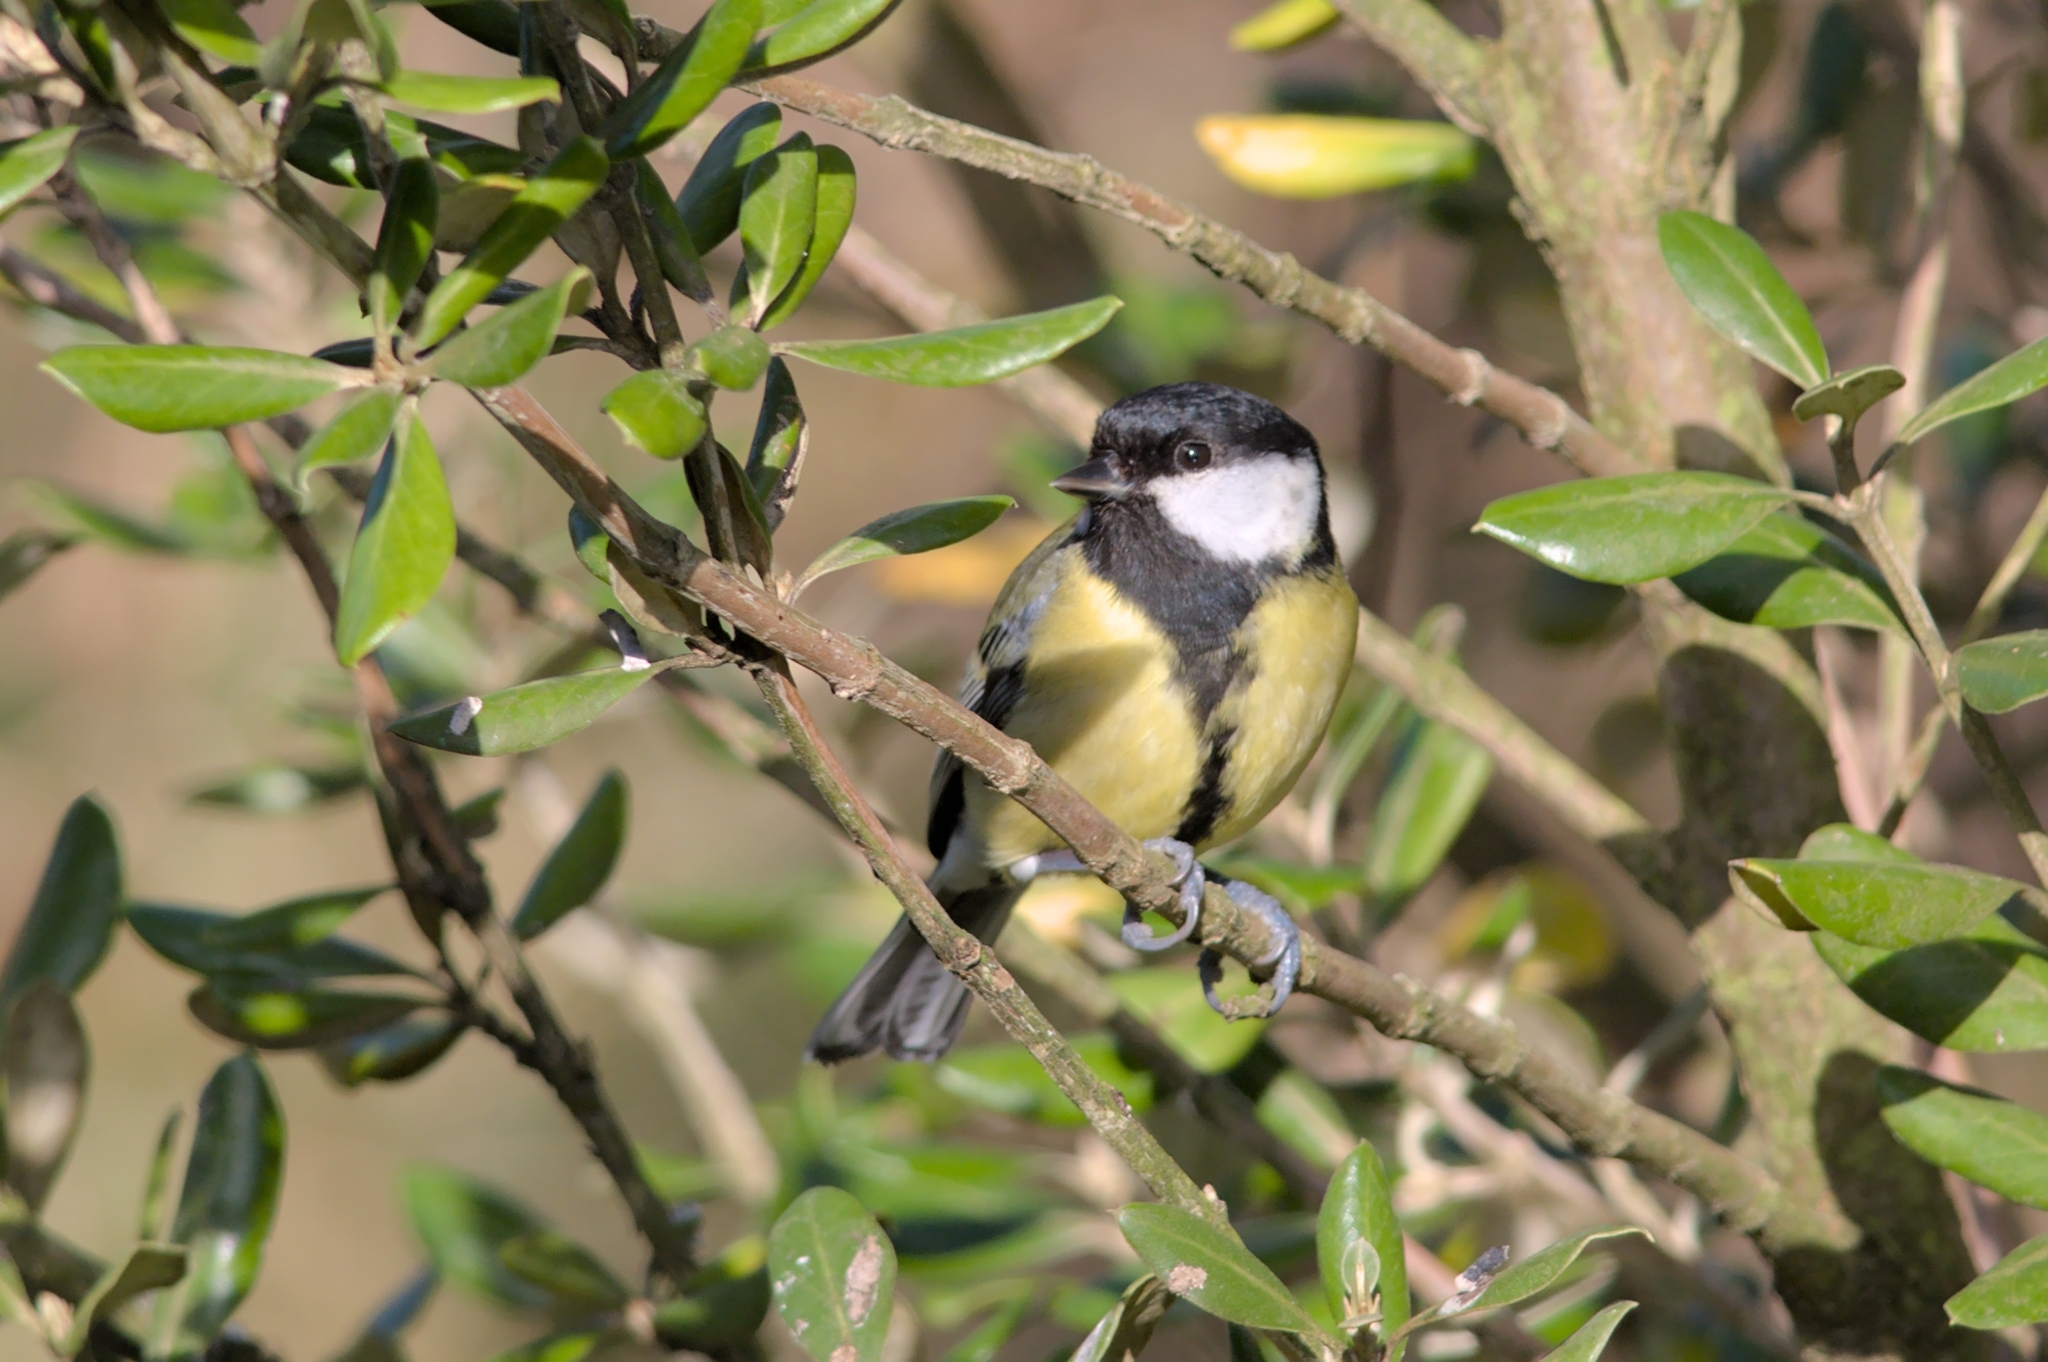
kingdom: Animalia
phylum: Chordata
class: Aves
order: Passeriformes
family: Paridae
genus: Parus
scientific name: Parus major
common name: Great tit
